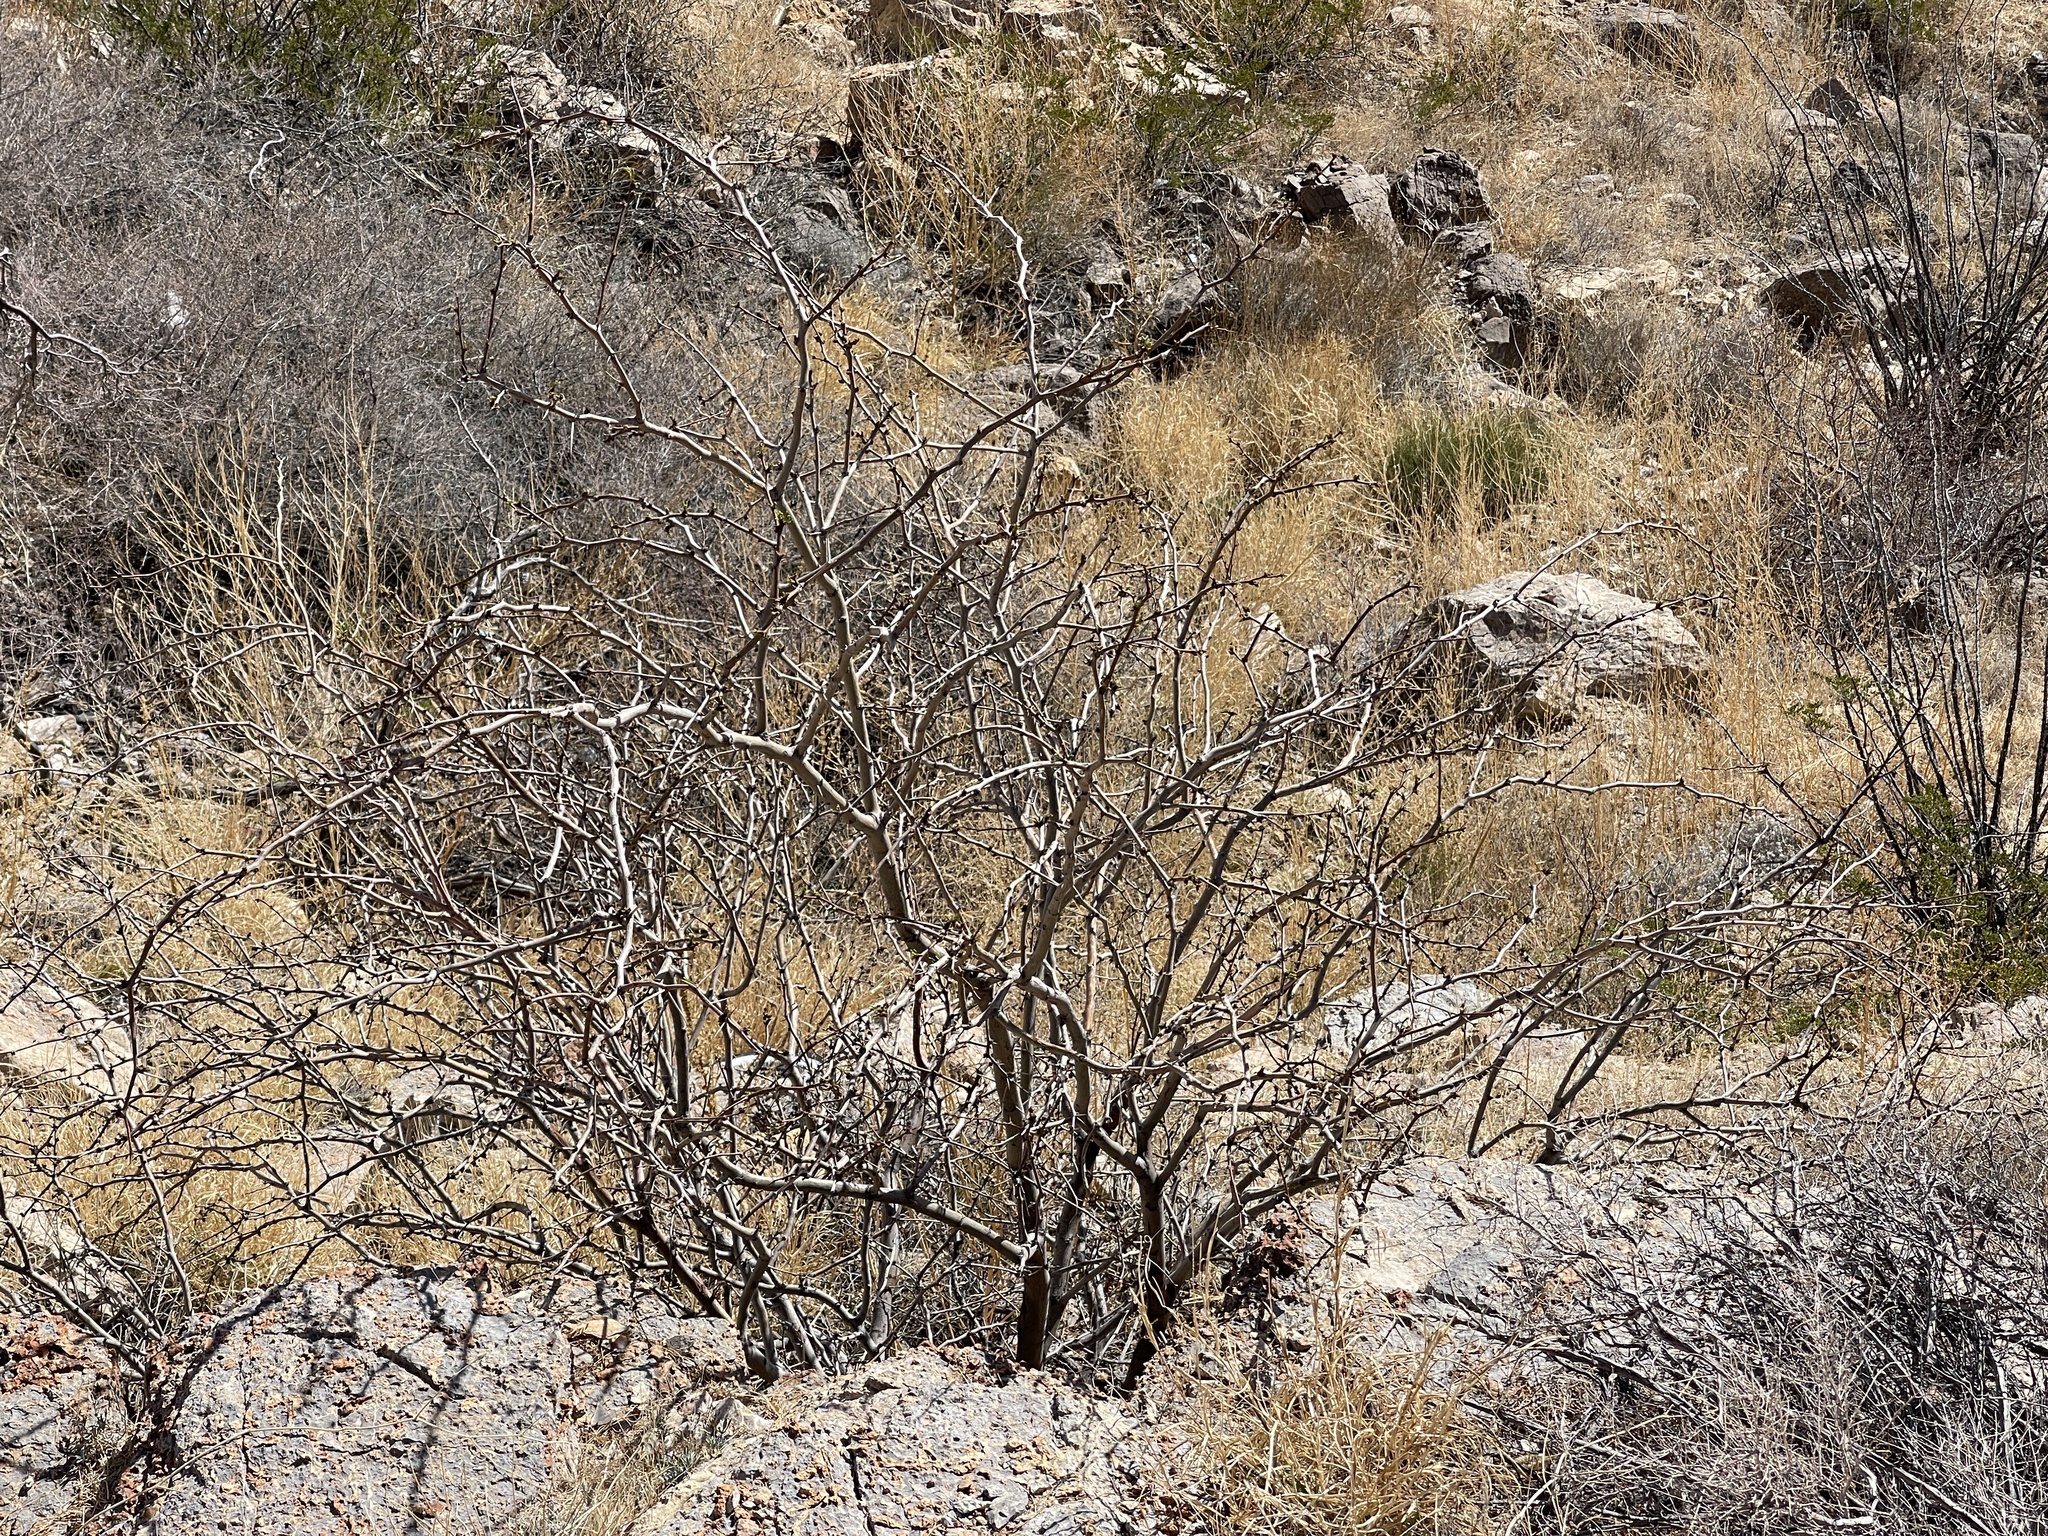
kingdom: Plantae
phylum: Tracheophyta
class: Magnoliopsida
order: Fabales
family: Fabaceae
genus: Prosopis
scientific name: Prosopis glandulosa
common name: Honey mesquite
